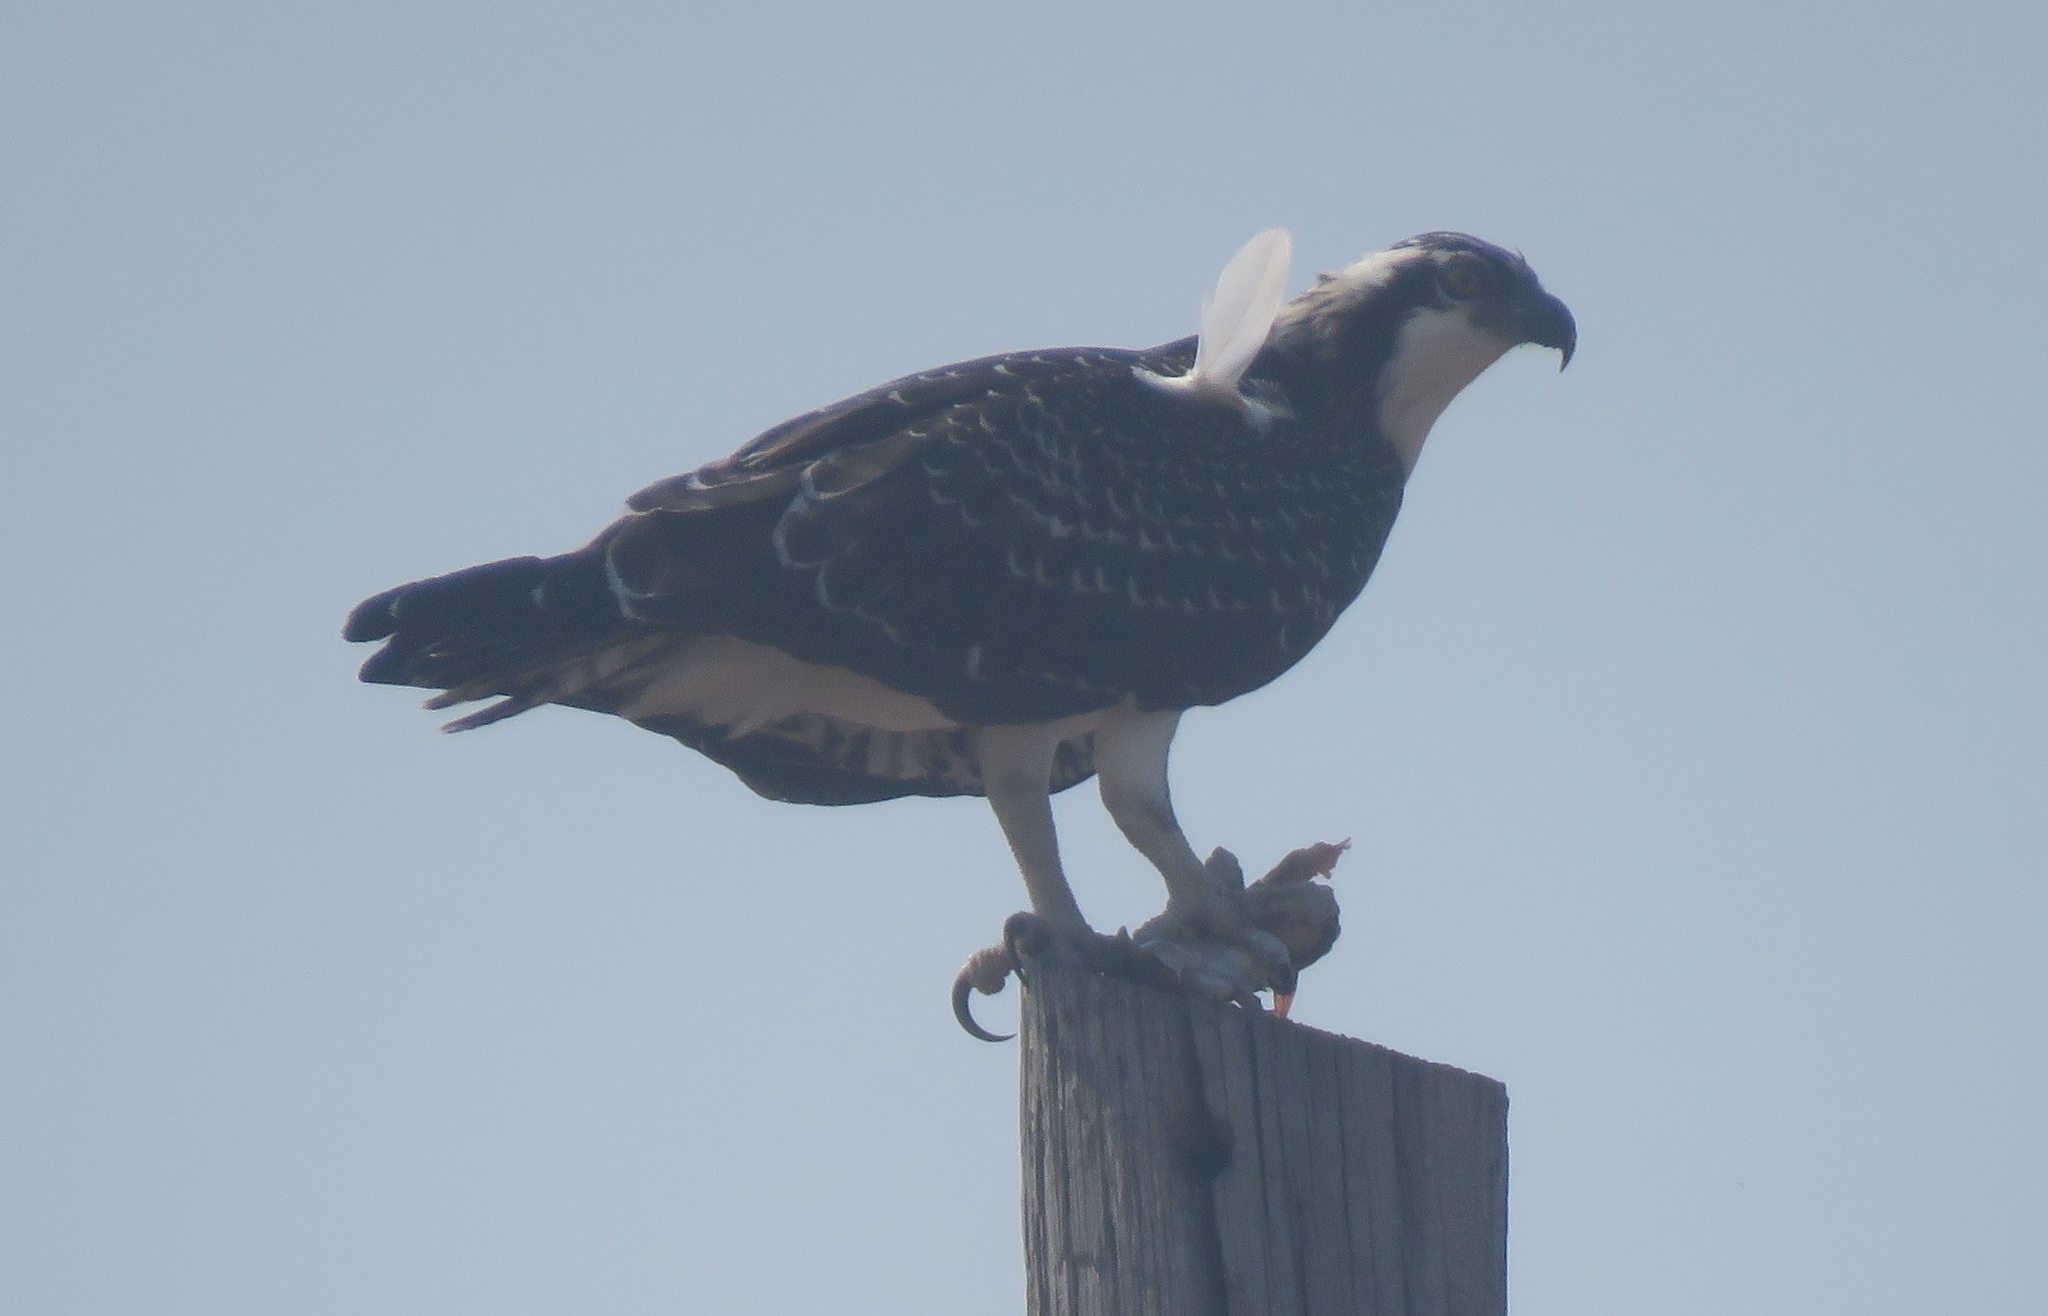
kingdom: Animalia
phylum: Chordata
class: Aves
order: Accipitriformes
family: Pandionidae
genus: Pandion
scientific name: Pandion haliaetus
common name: Osprey
